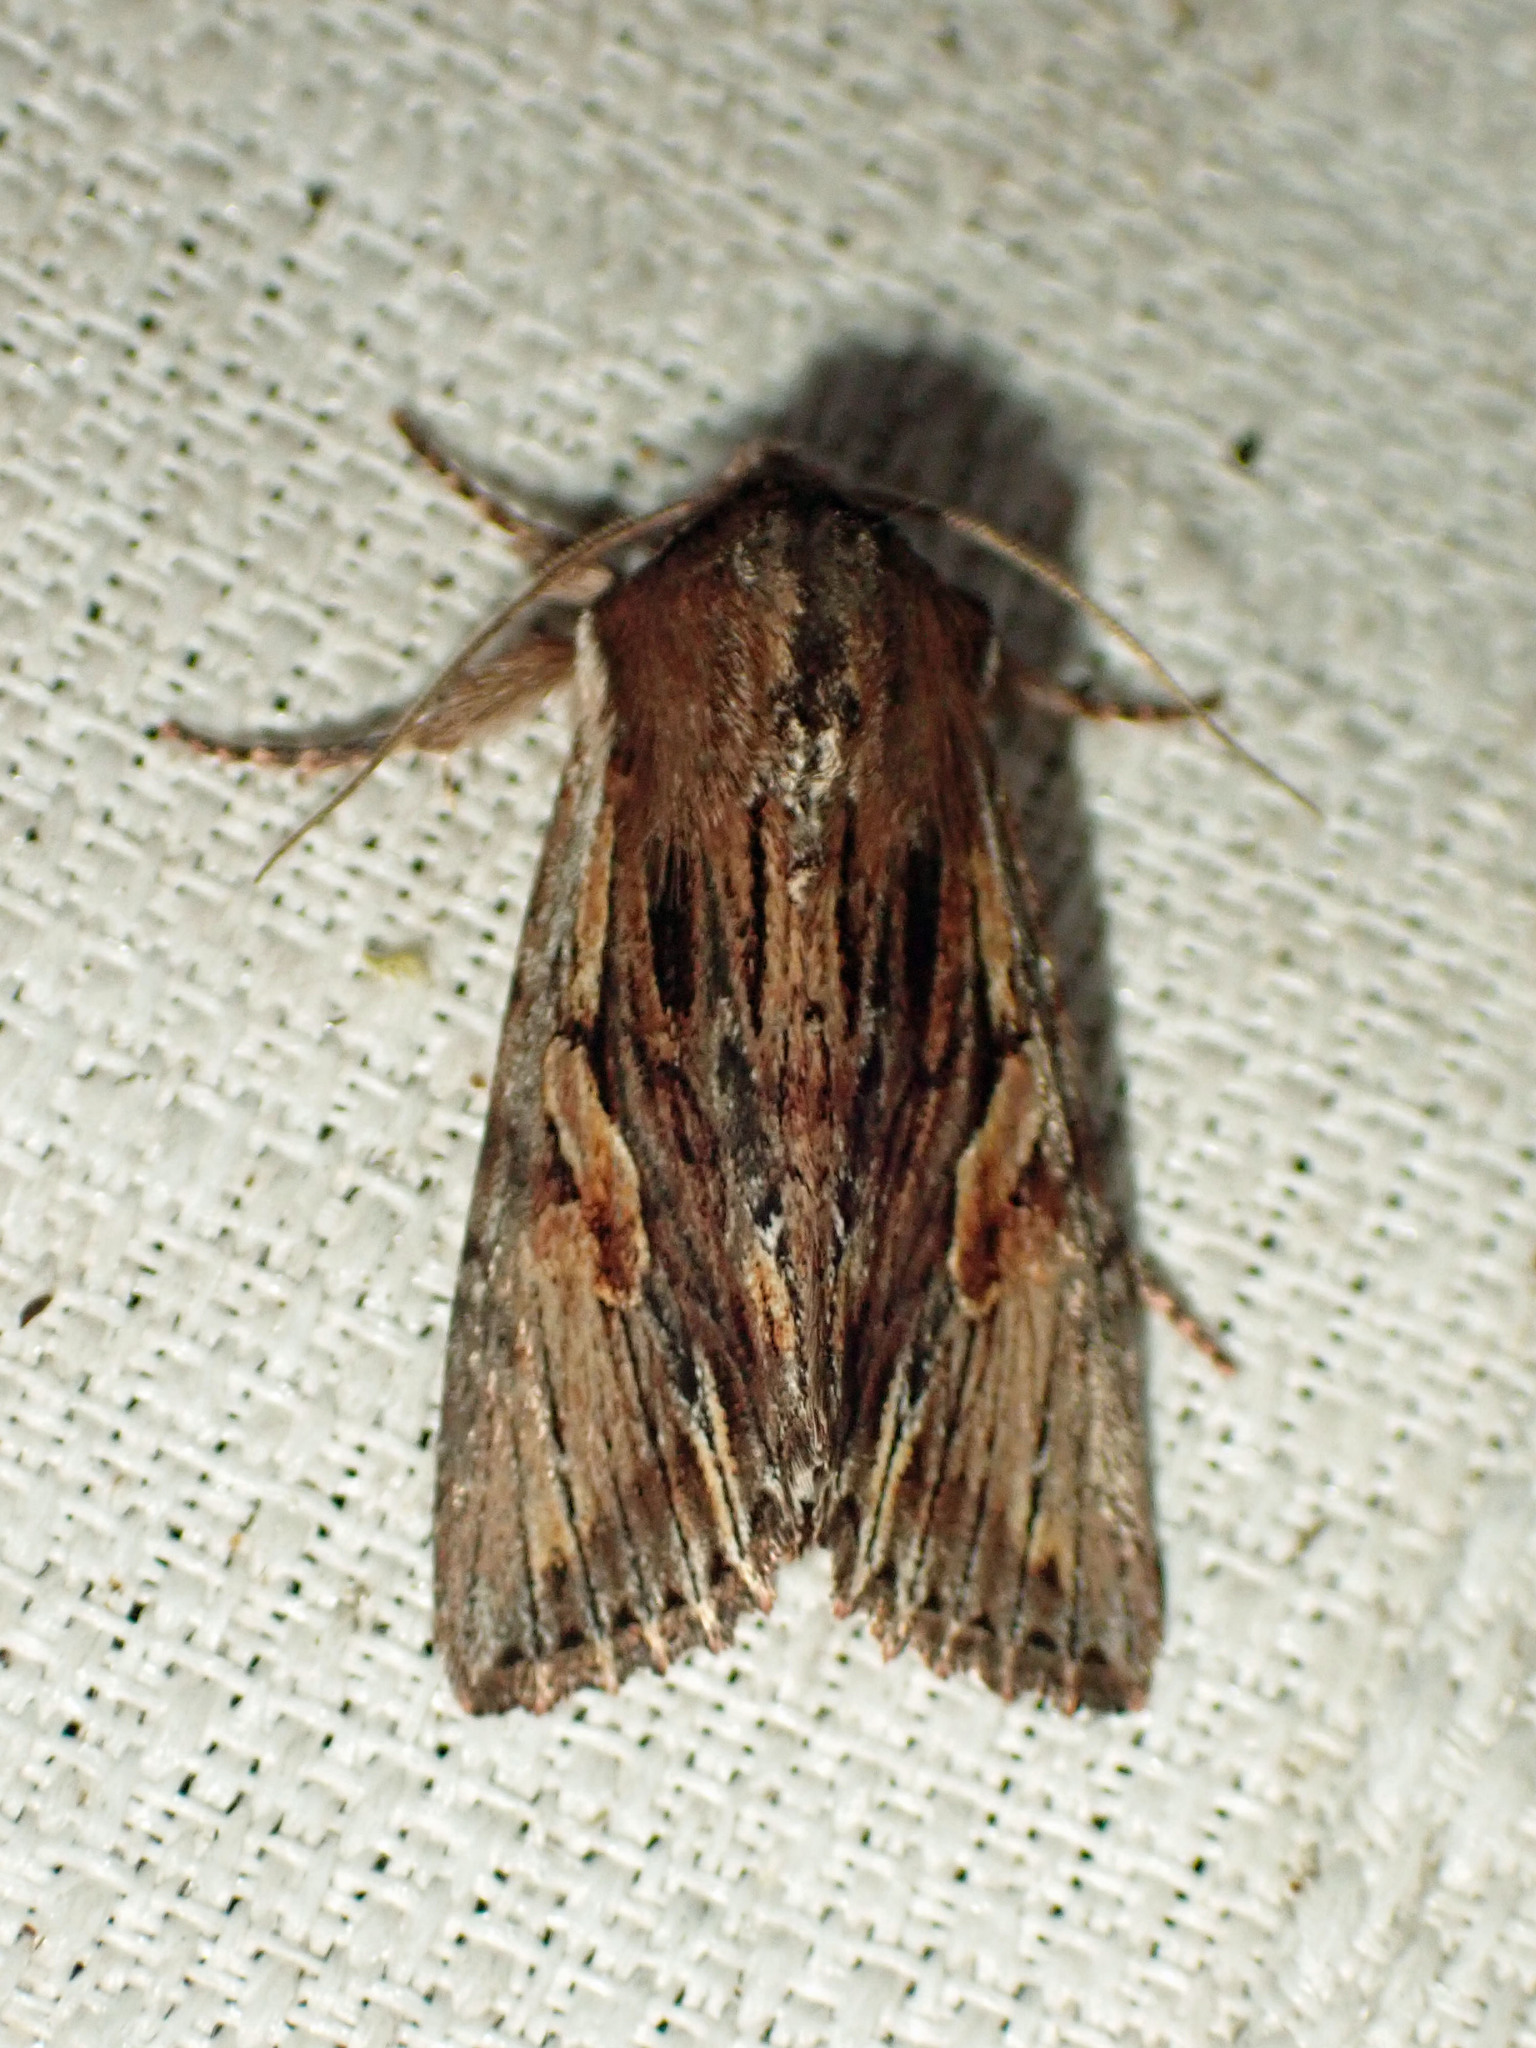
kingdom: Animalia
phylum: Arthropoda
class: Insecta
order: Lepidoptera
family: Noctuidae
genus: Achatia
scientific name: Achatia evicta
